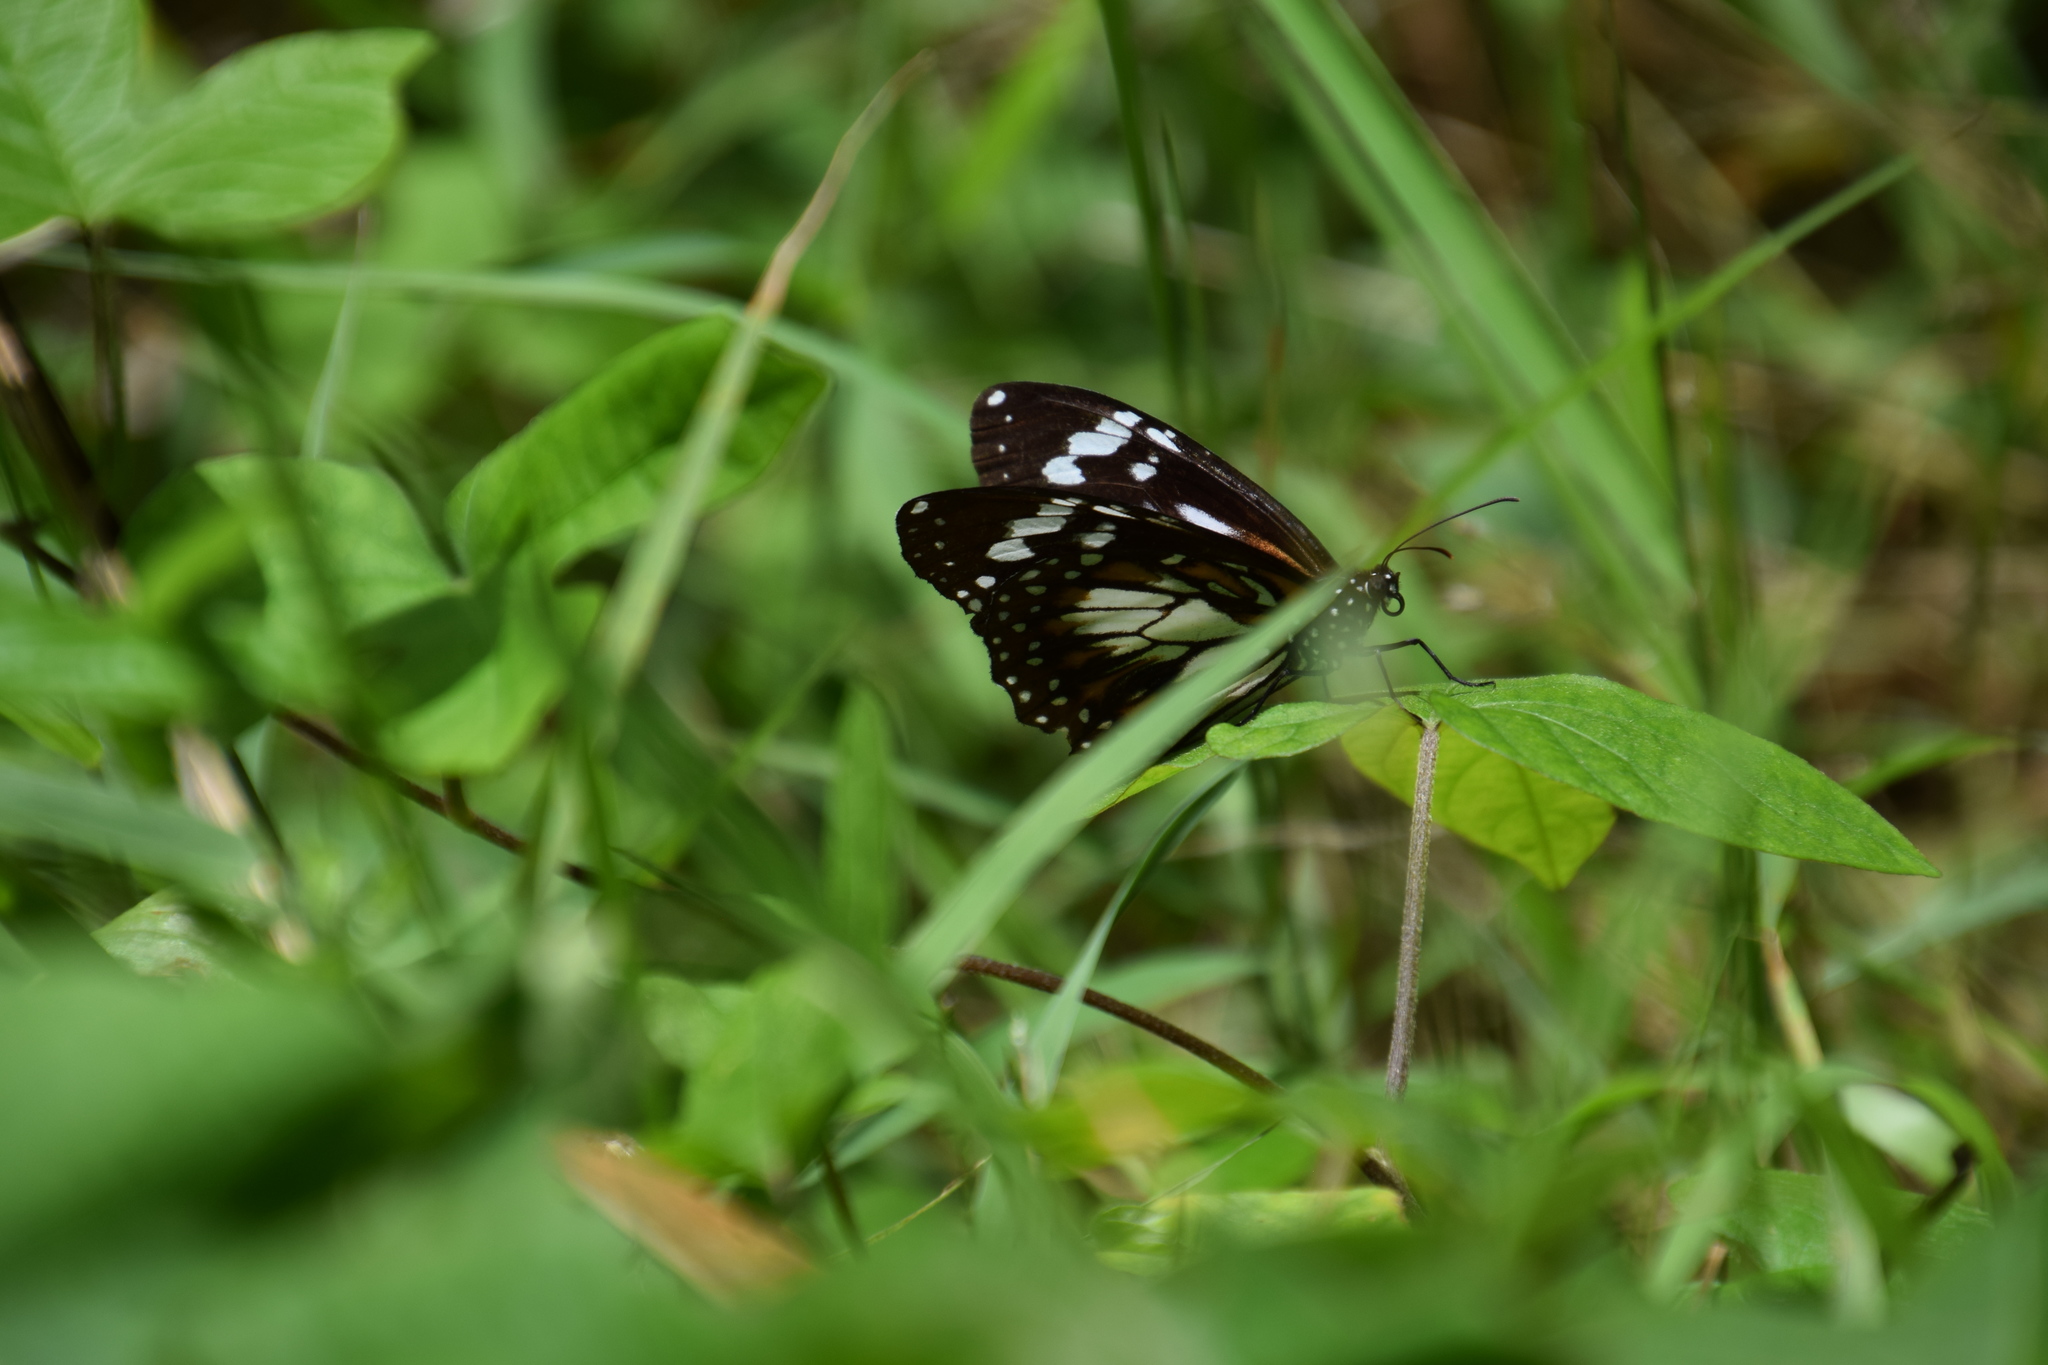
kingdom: Animalia
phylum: Arthropoda
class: Insecta
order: Lepidoptera
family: Nymphalidae
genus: Danaus
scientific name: Danaus affinis
